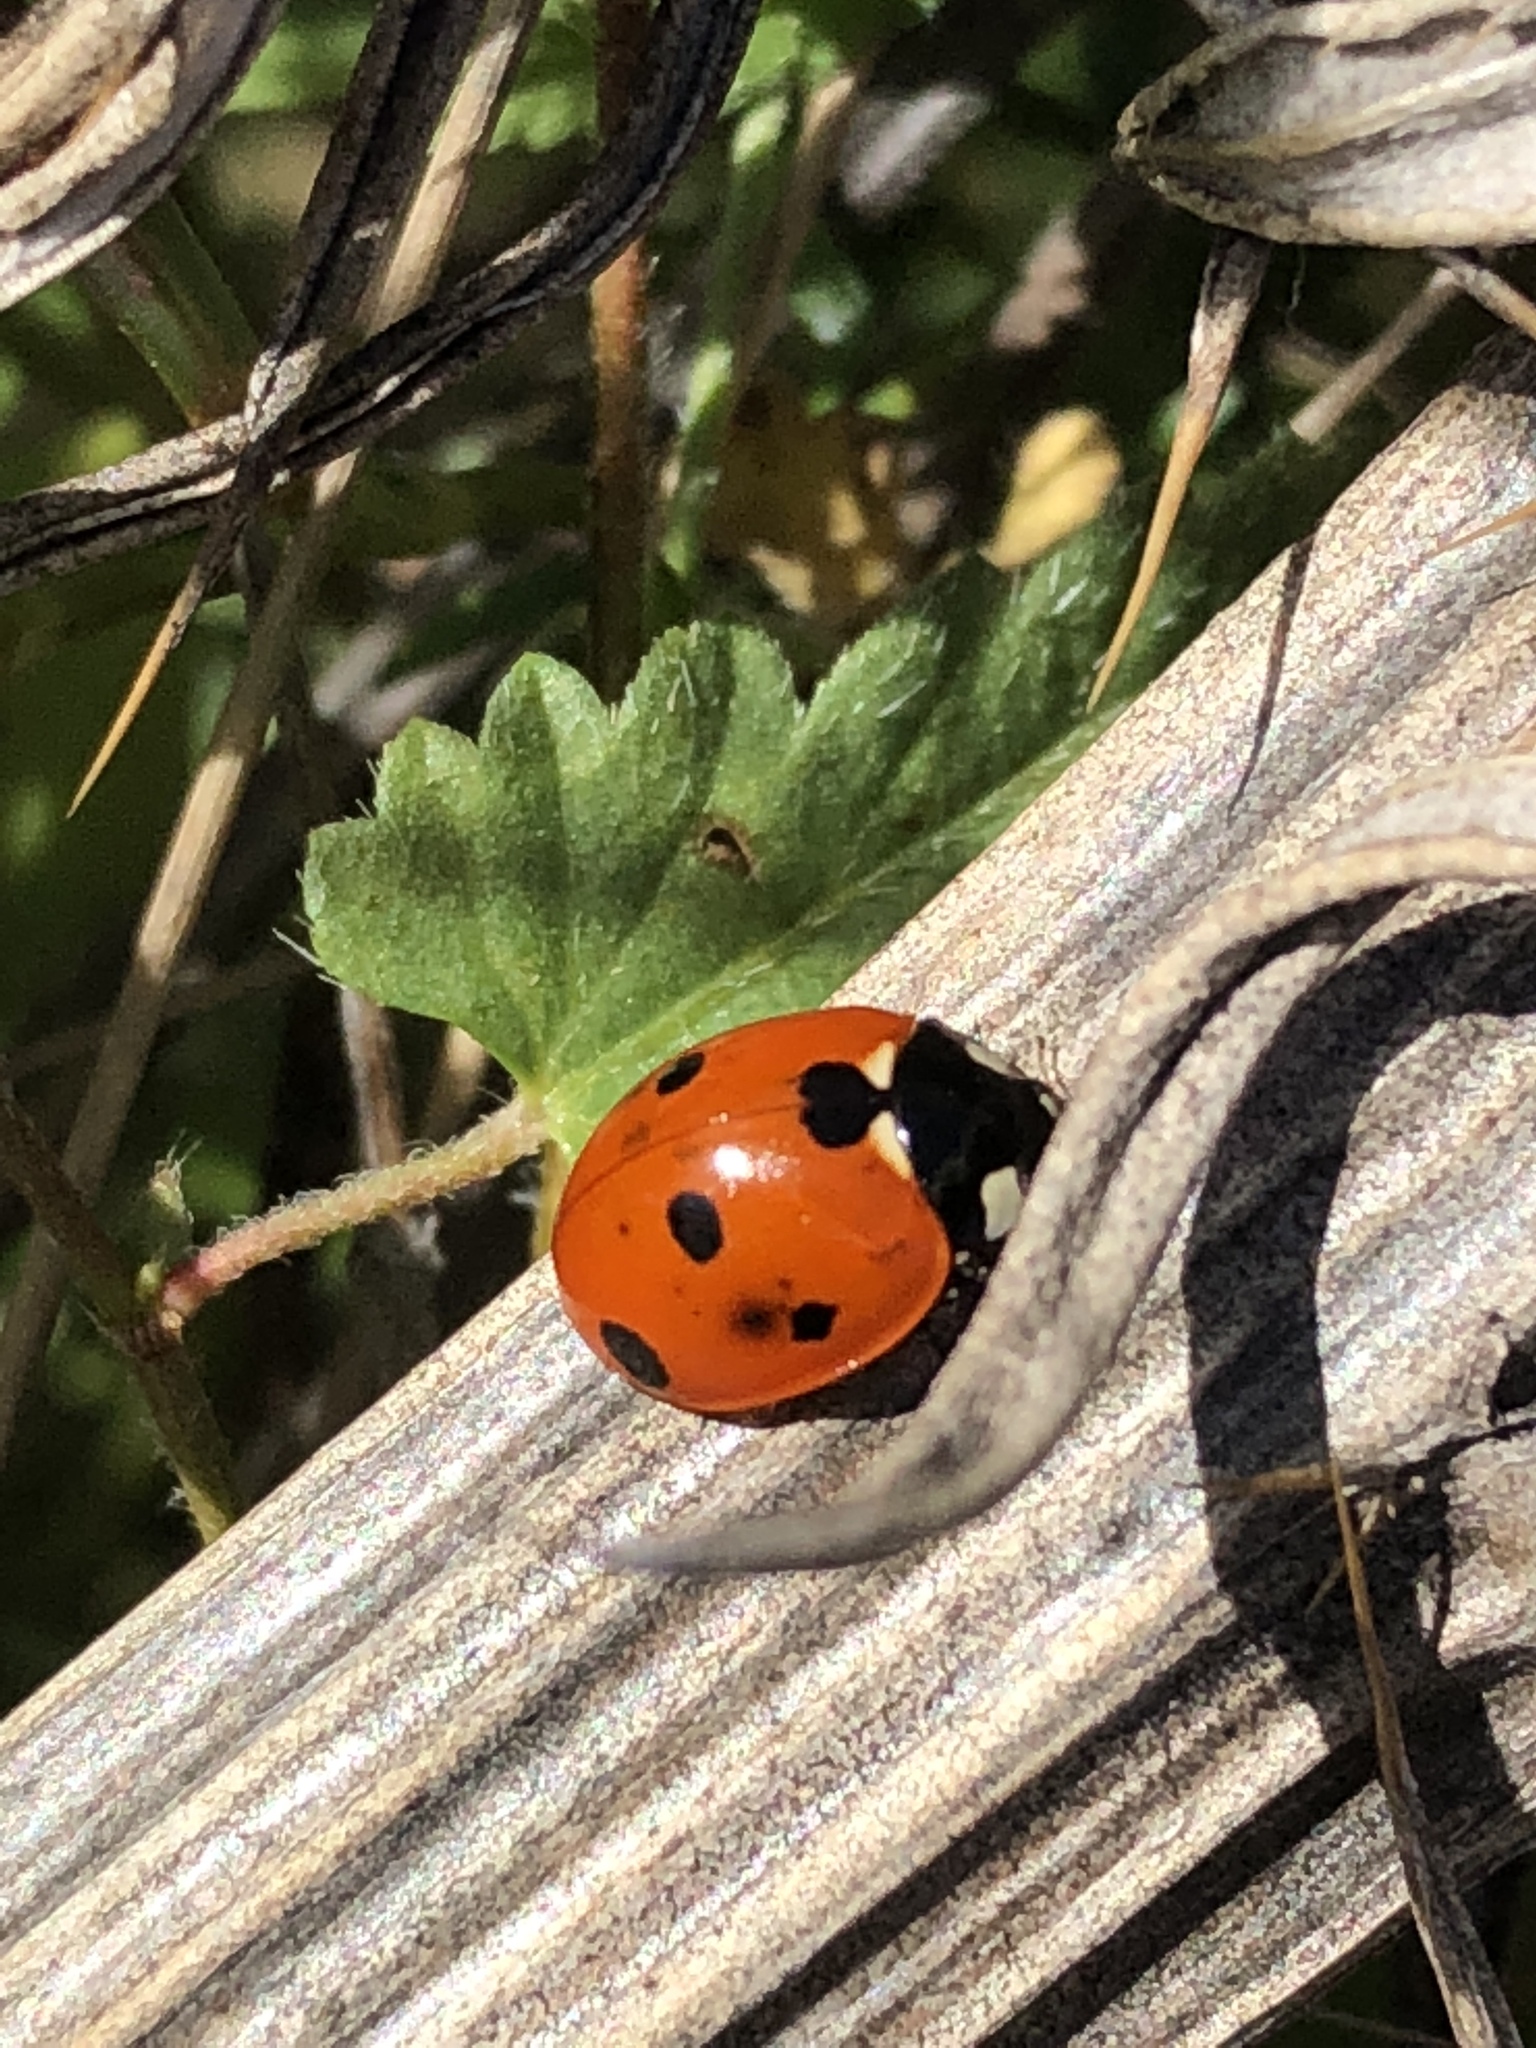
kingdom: Animalia
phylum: Arthropoda
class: Insecta
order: Coleoptera
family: Coccinellidae
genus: Coccinella
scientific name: Coccinella septempunctata
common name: Sevenspotted lady beetle
